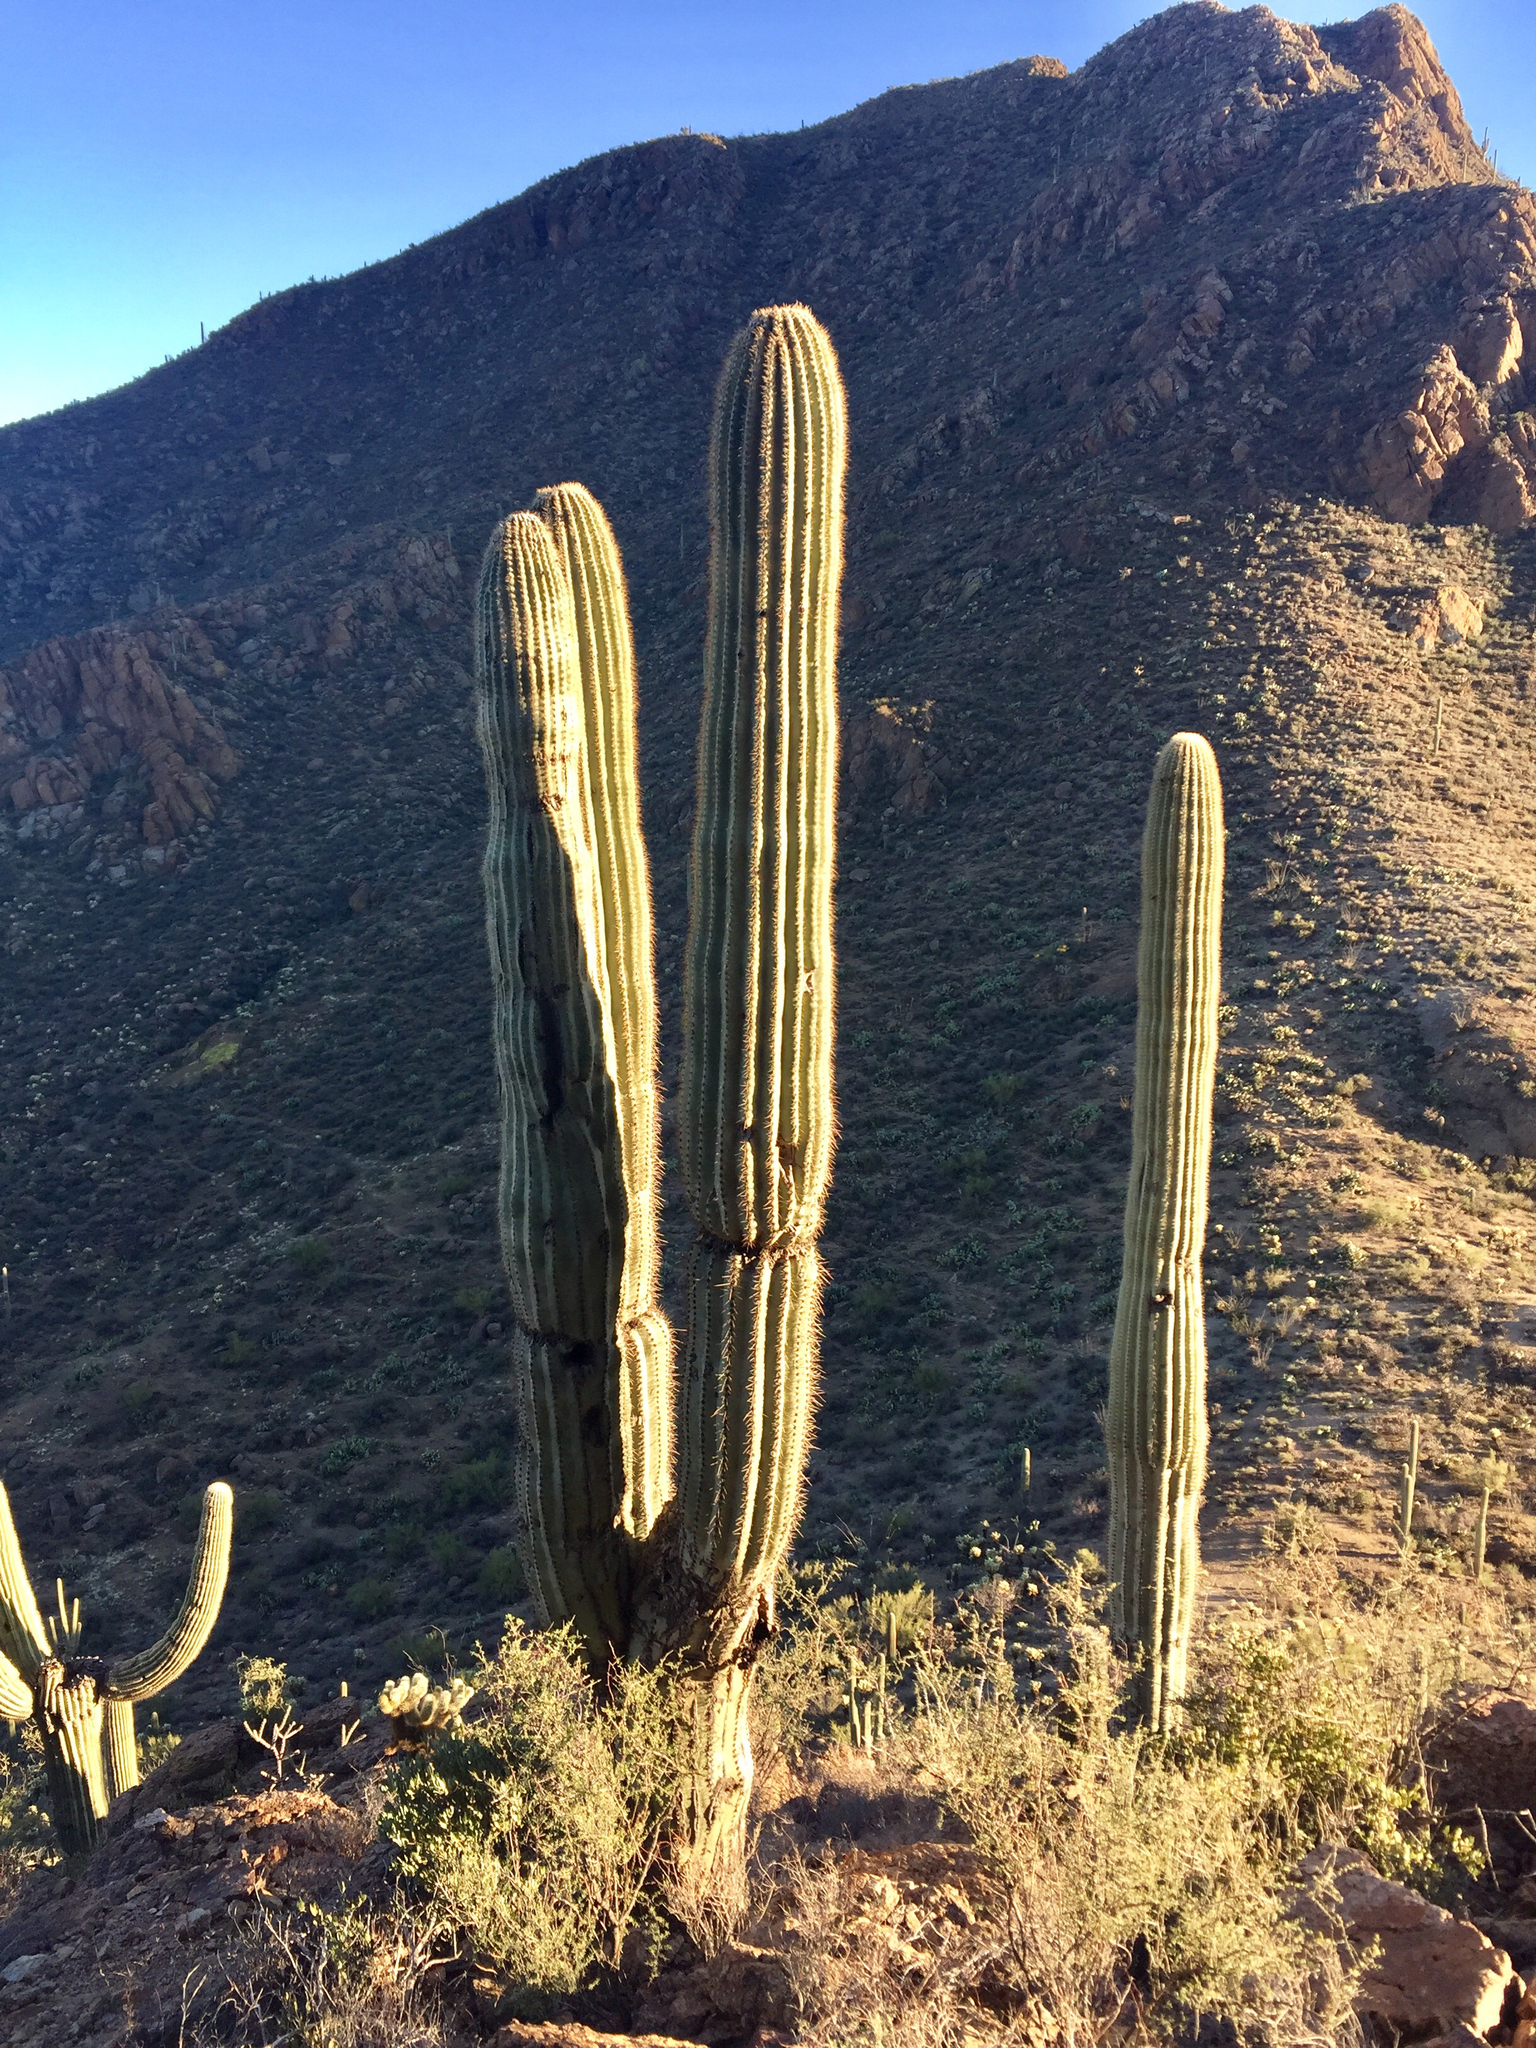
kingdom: Plantae
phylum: Tracheophyta
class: Magnoliopsida
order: Caryophyllales
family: Cactaceae
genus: Carnegiea
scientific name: Carnegiea gigantea
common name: Saguaro
